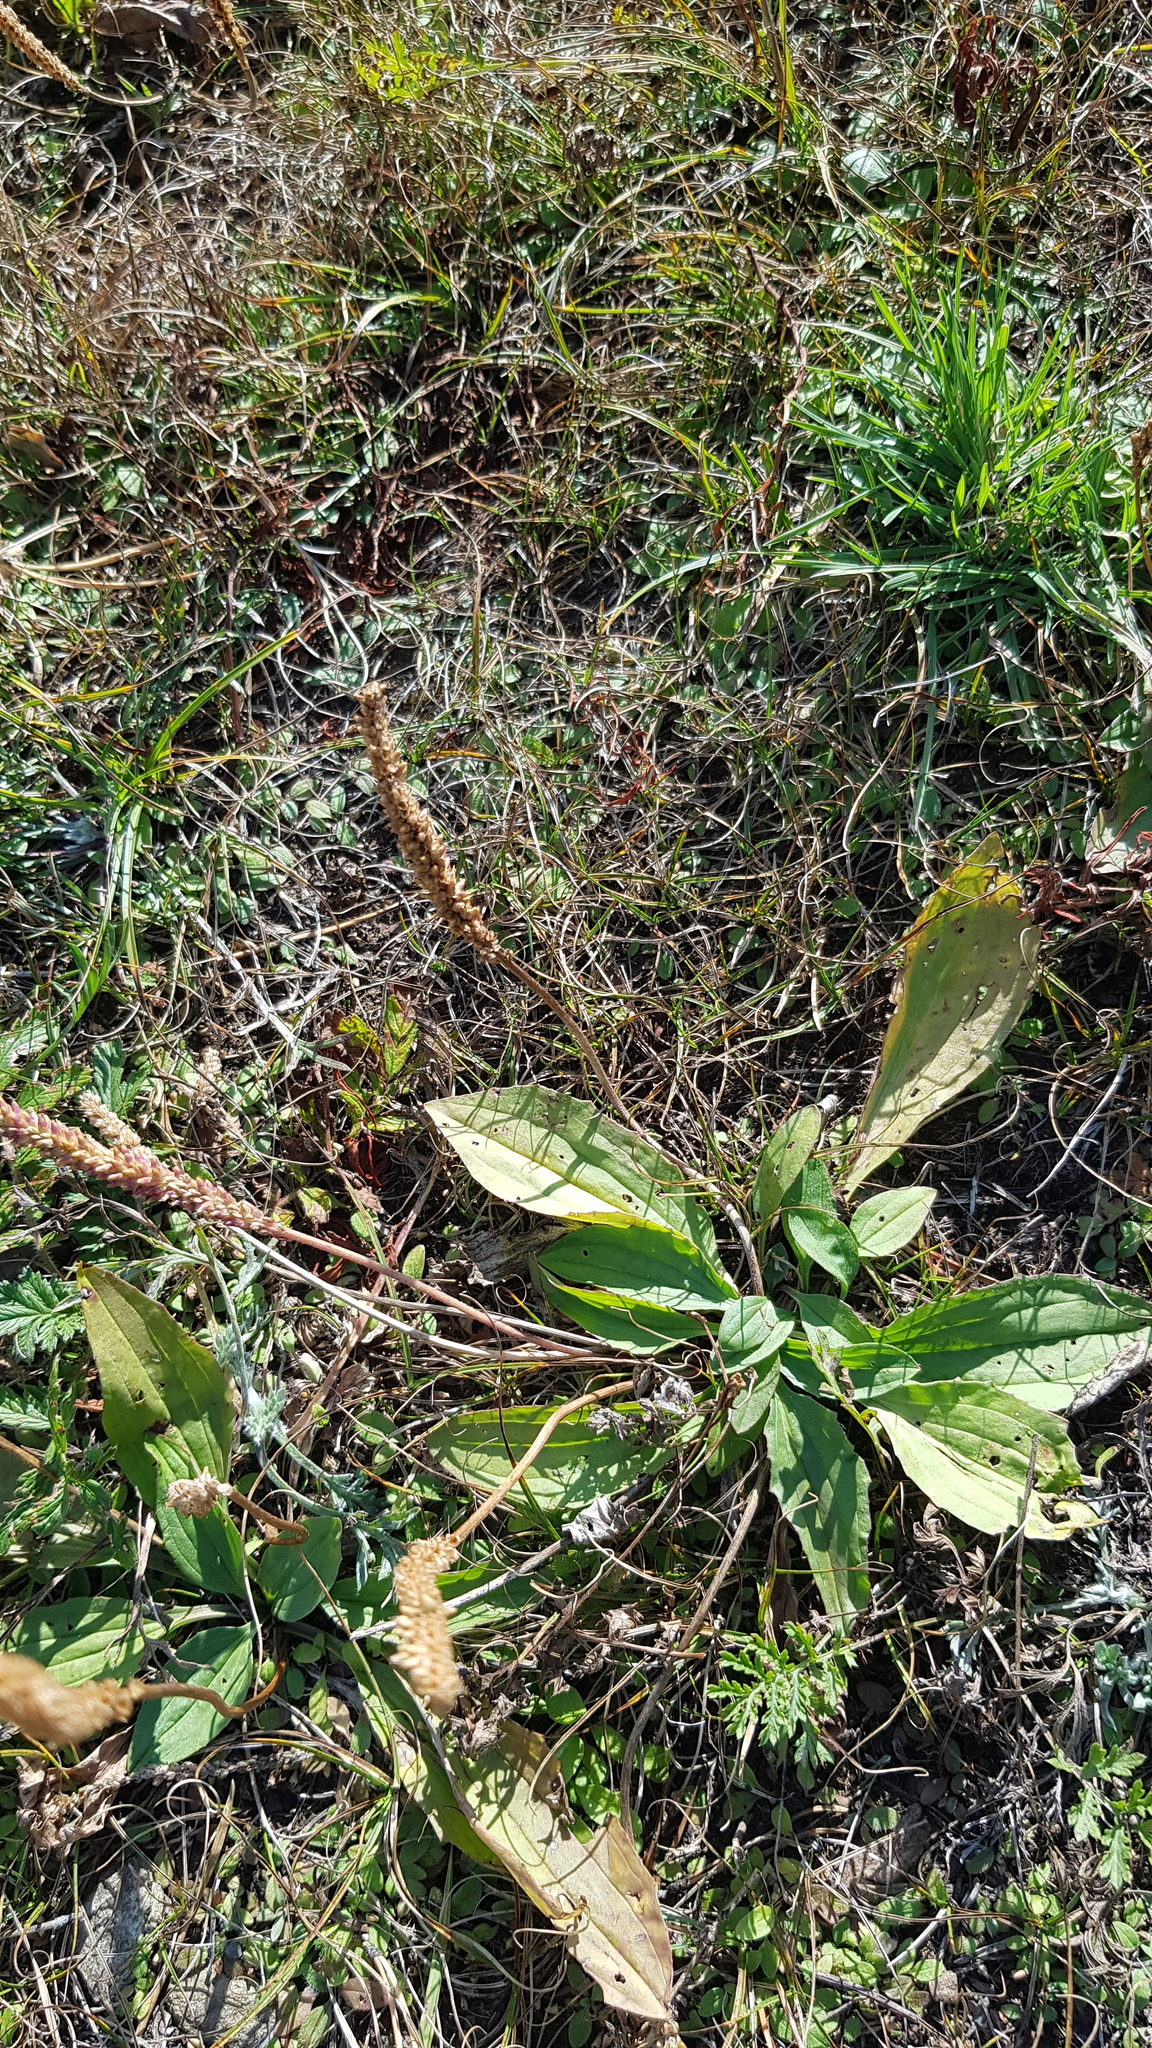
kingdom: Plantae
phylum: Tracheophyta
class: Magnoliopsida
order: Lamiales
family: Plantaginaceae
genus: Plantago
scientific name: Plantago depressa
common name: Depressed plantain
